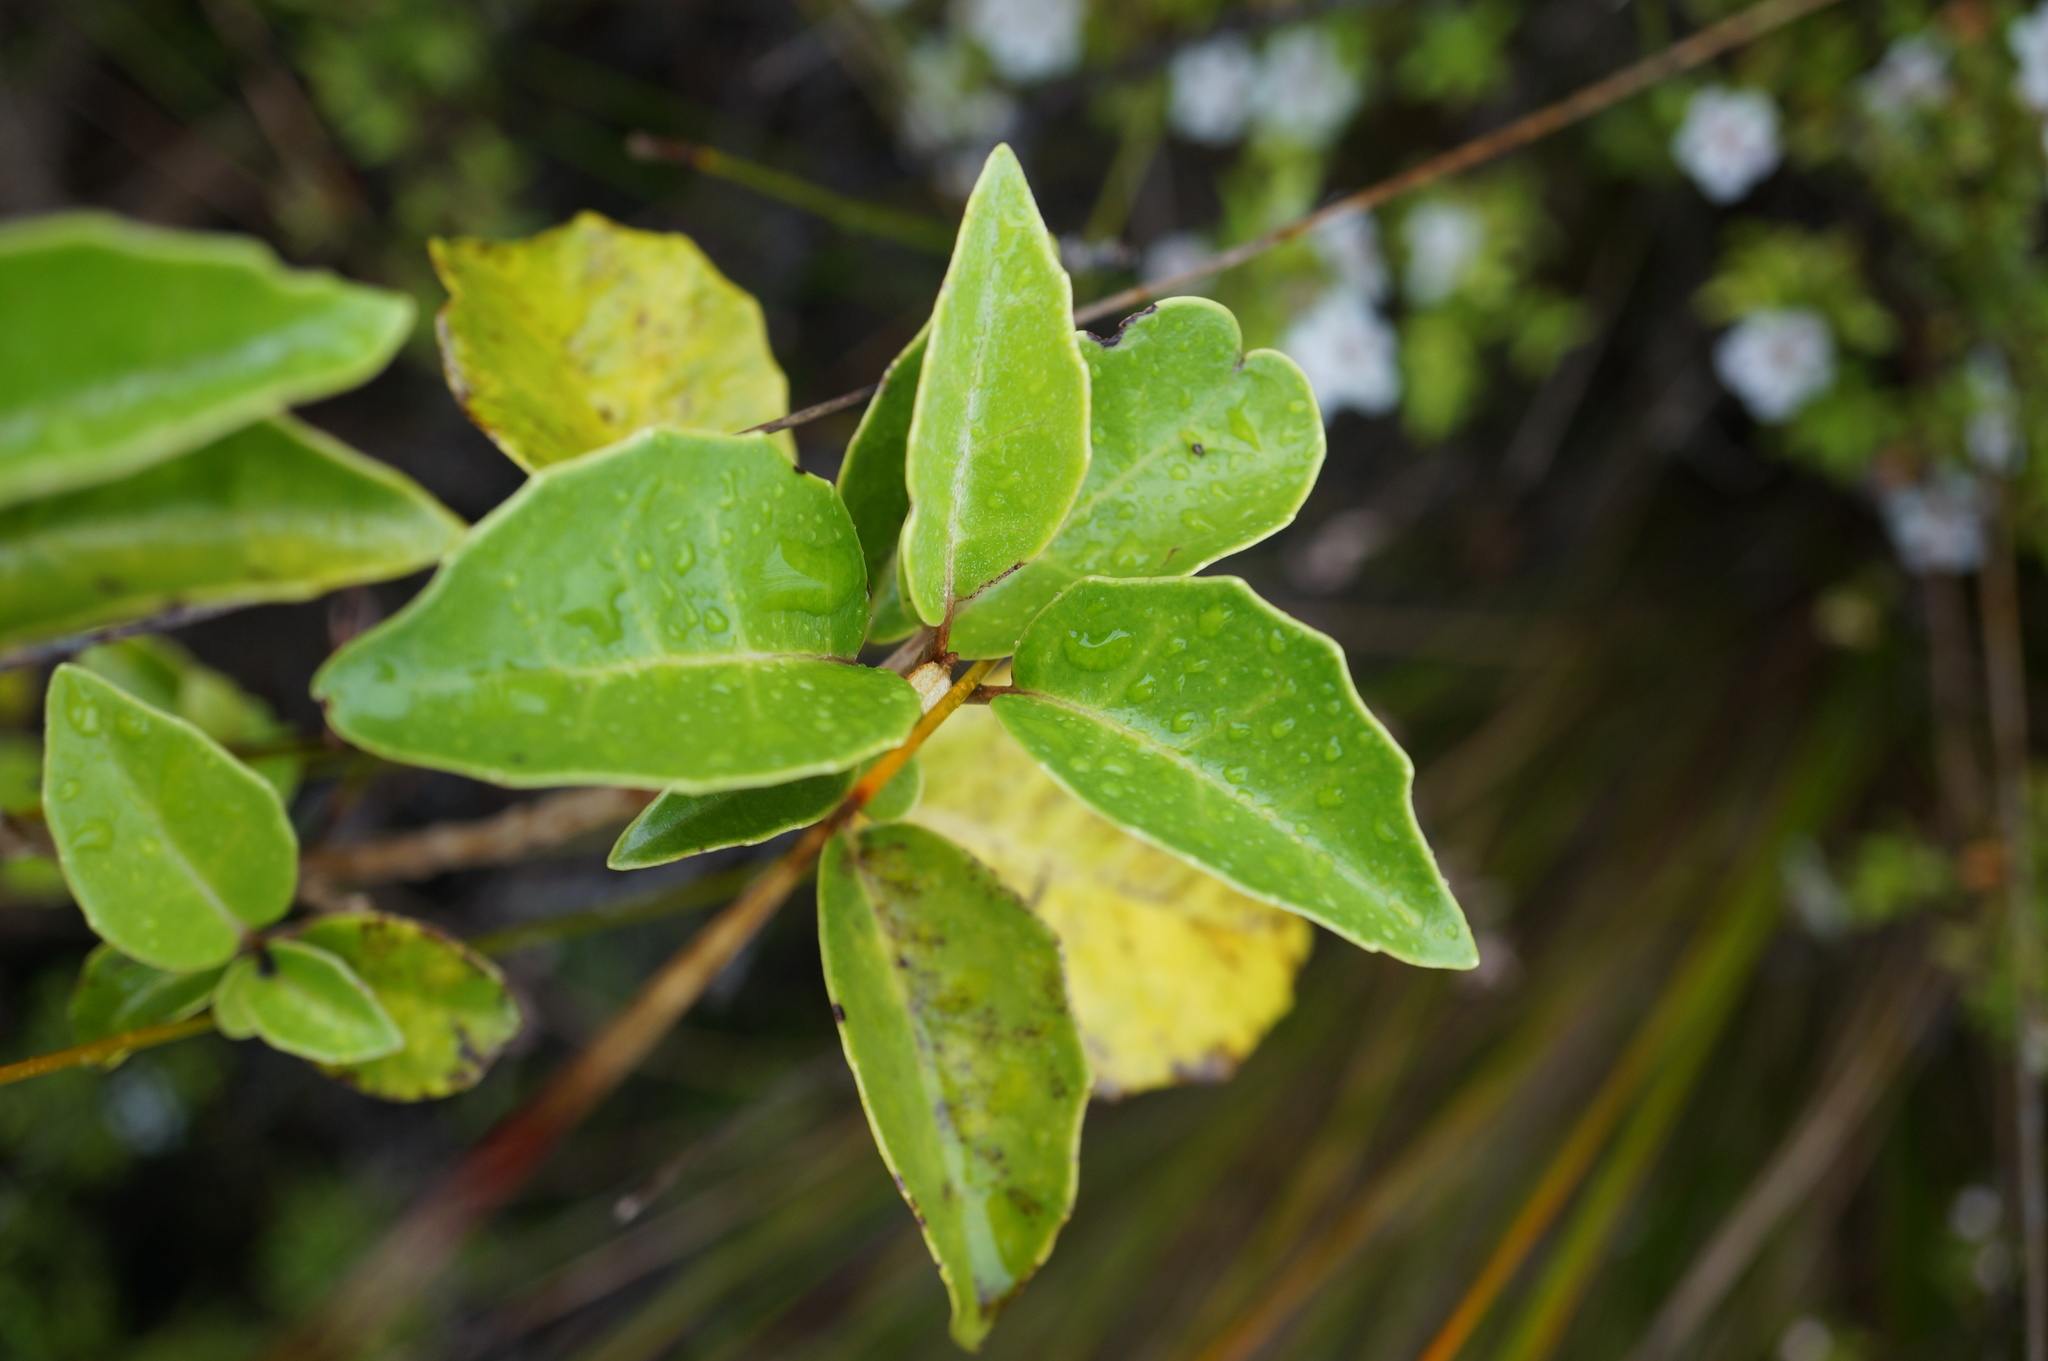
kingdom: Plantae
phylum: Tracheophyta
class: Magnoliopsida
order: Asterales
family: Asteraceae
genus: Olearia
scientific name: Olearia arborescens
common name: Glossy tree daisy
